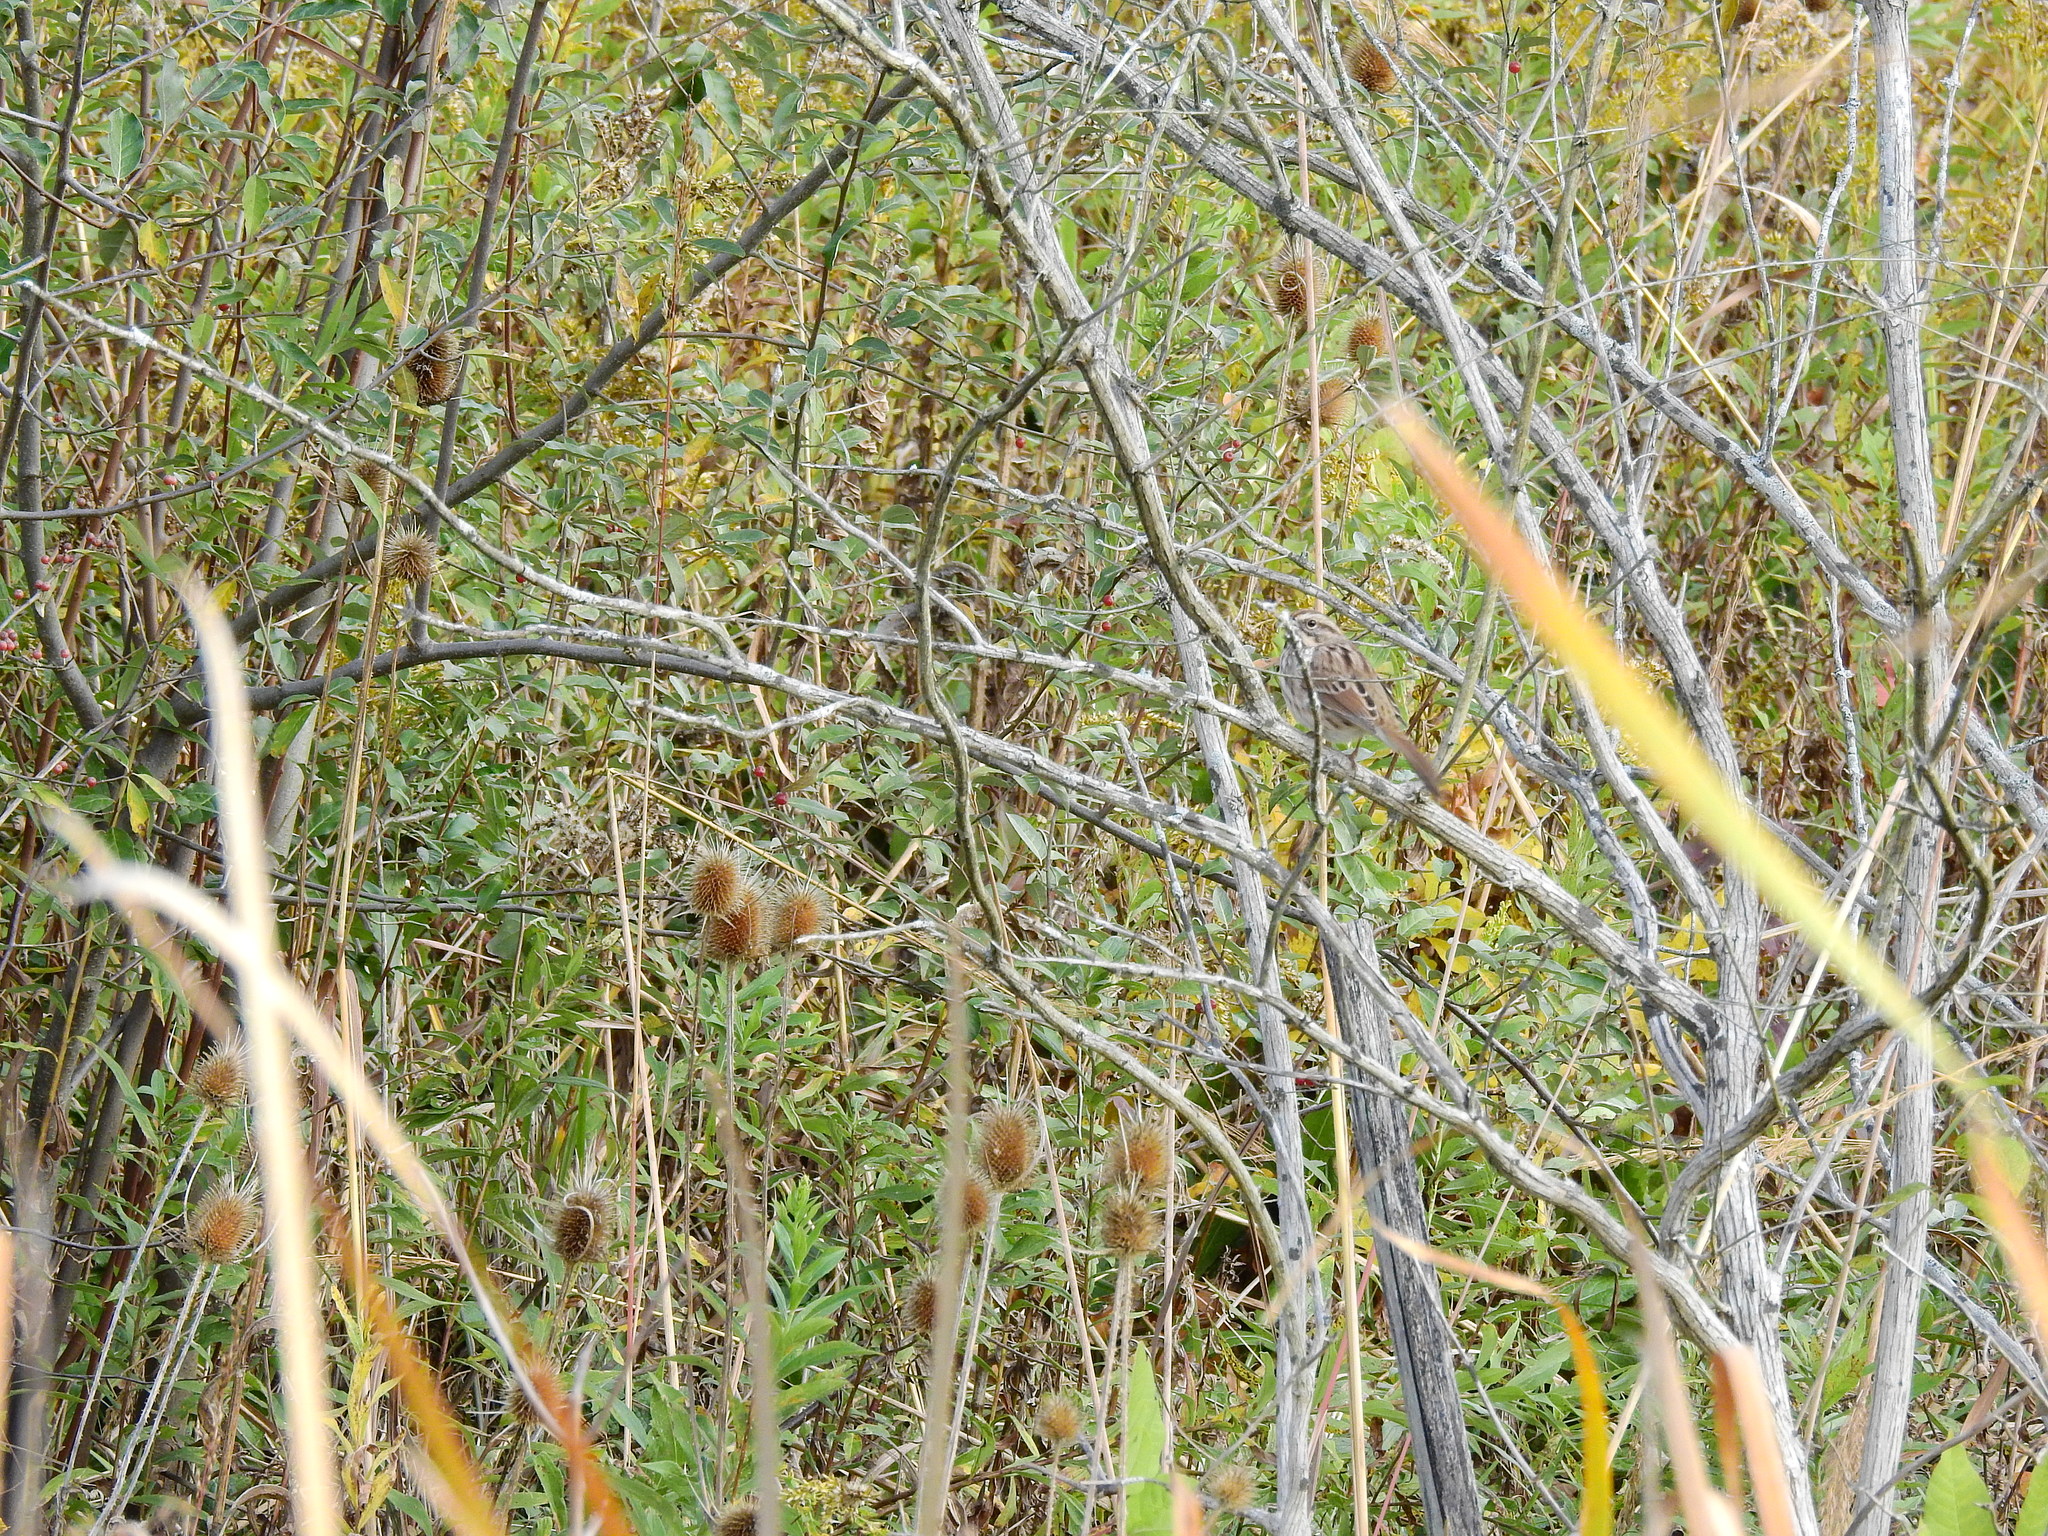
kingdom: Animalia
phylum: Chordata
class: Aves
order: Passeriformes
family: Passerellidae
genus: Melospiza
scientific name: Melospiza melodia
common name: Song sparrow
